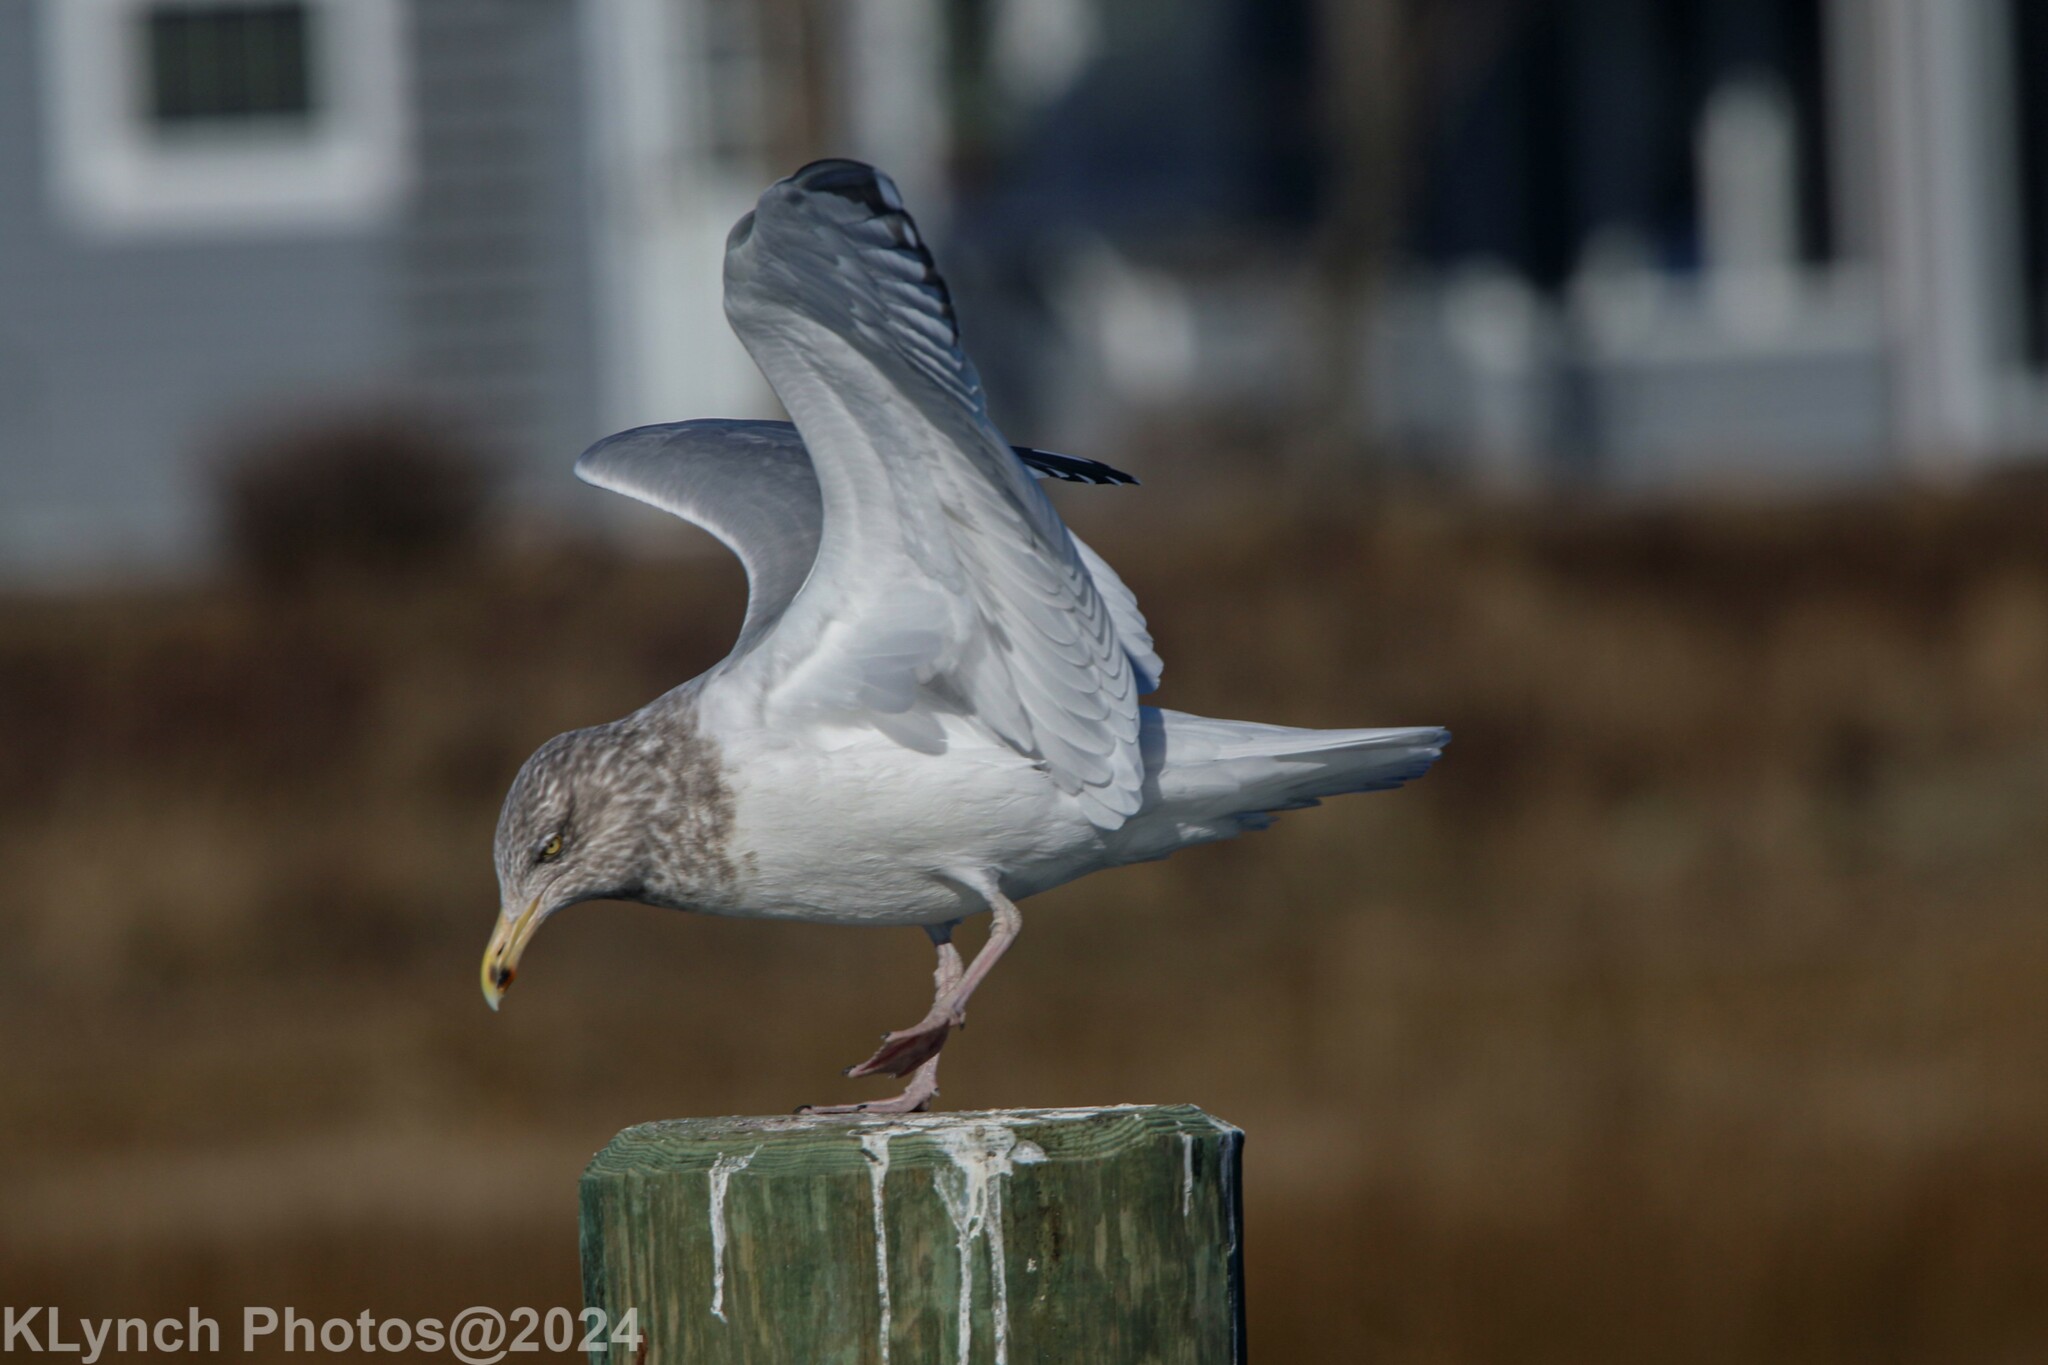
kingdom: Animalia
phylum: Chordata
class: Aves
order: Charadriiformes
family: Laridae
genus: Larus
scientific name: Larus argentatus
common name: Herring gull
